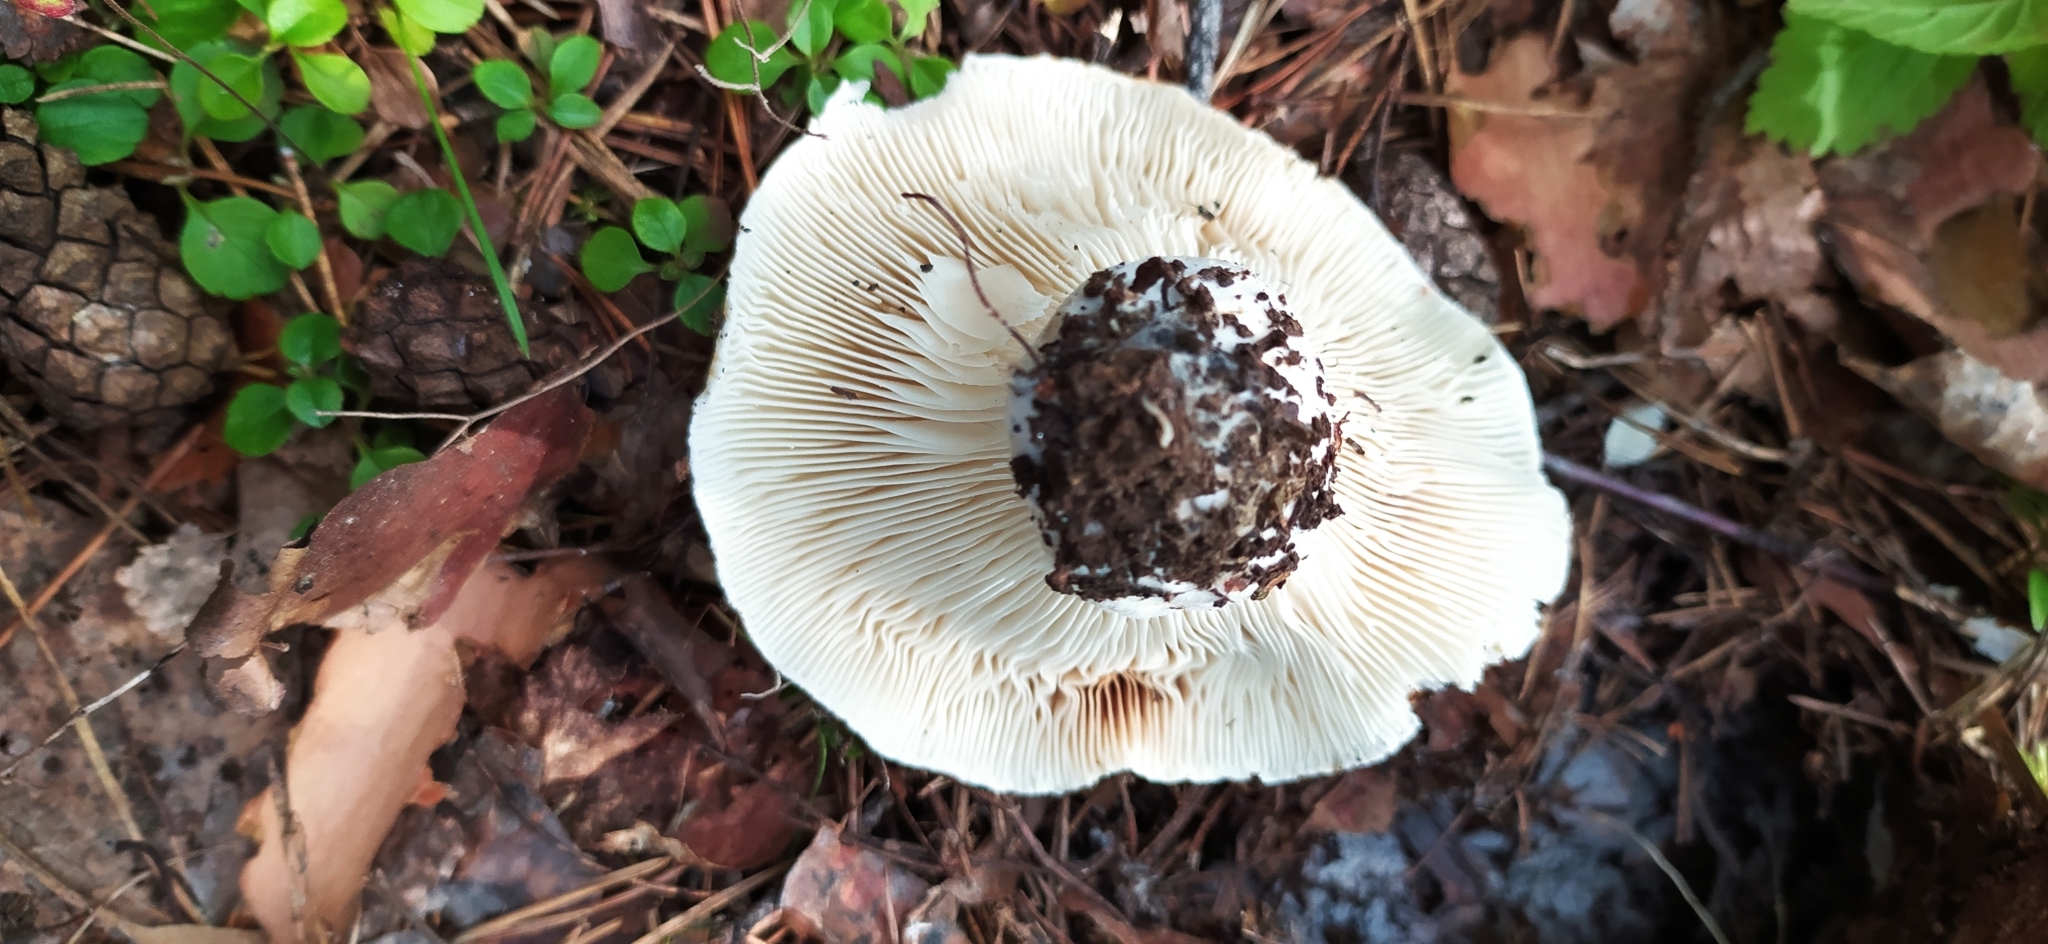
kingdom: Fungi
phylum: Basidiomycota
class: Agaricomycetes
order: Russulales
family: Russulaceae
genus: Russula
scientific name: Russula delica
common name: Milk white brittlegill
